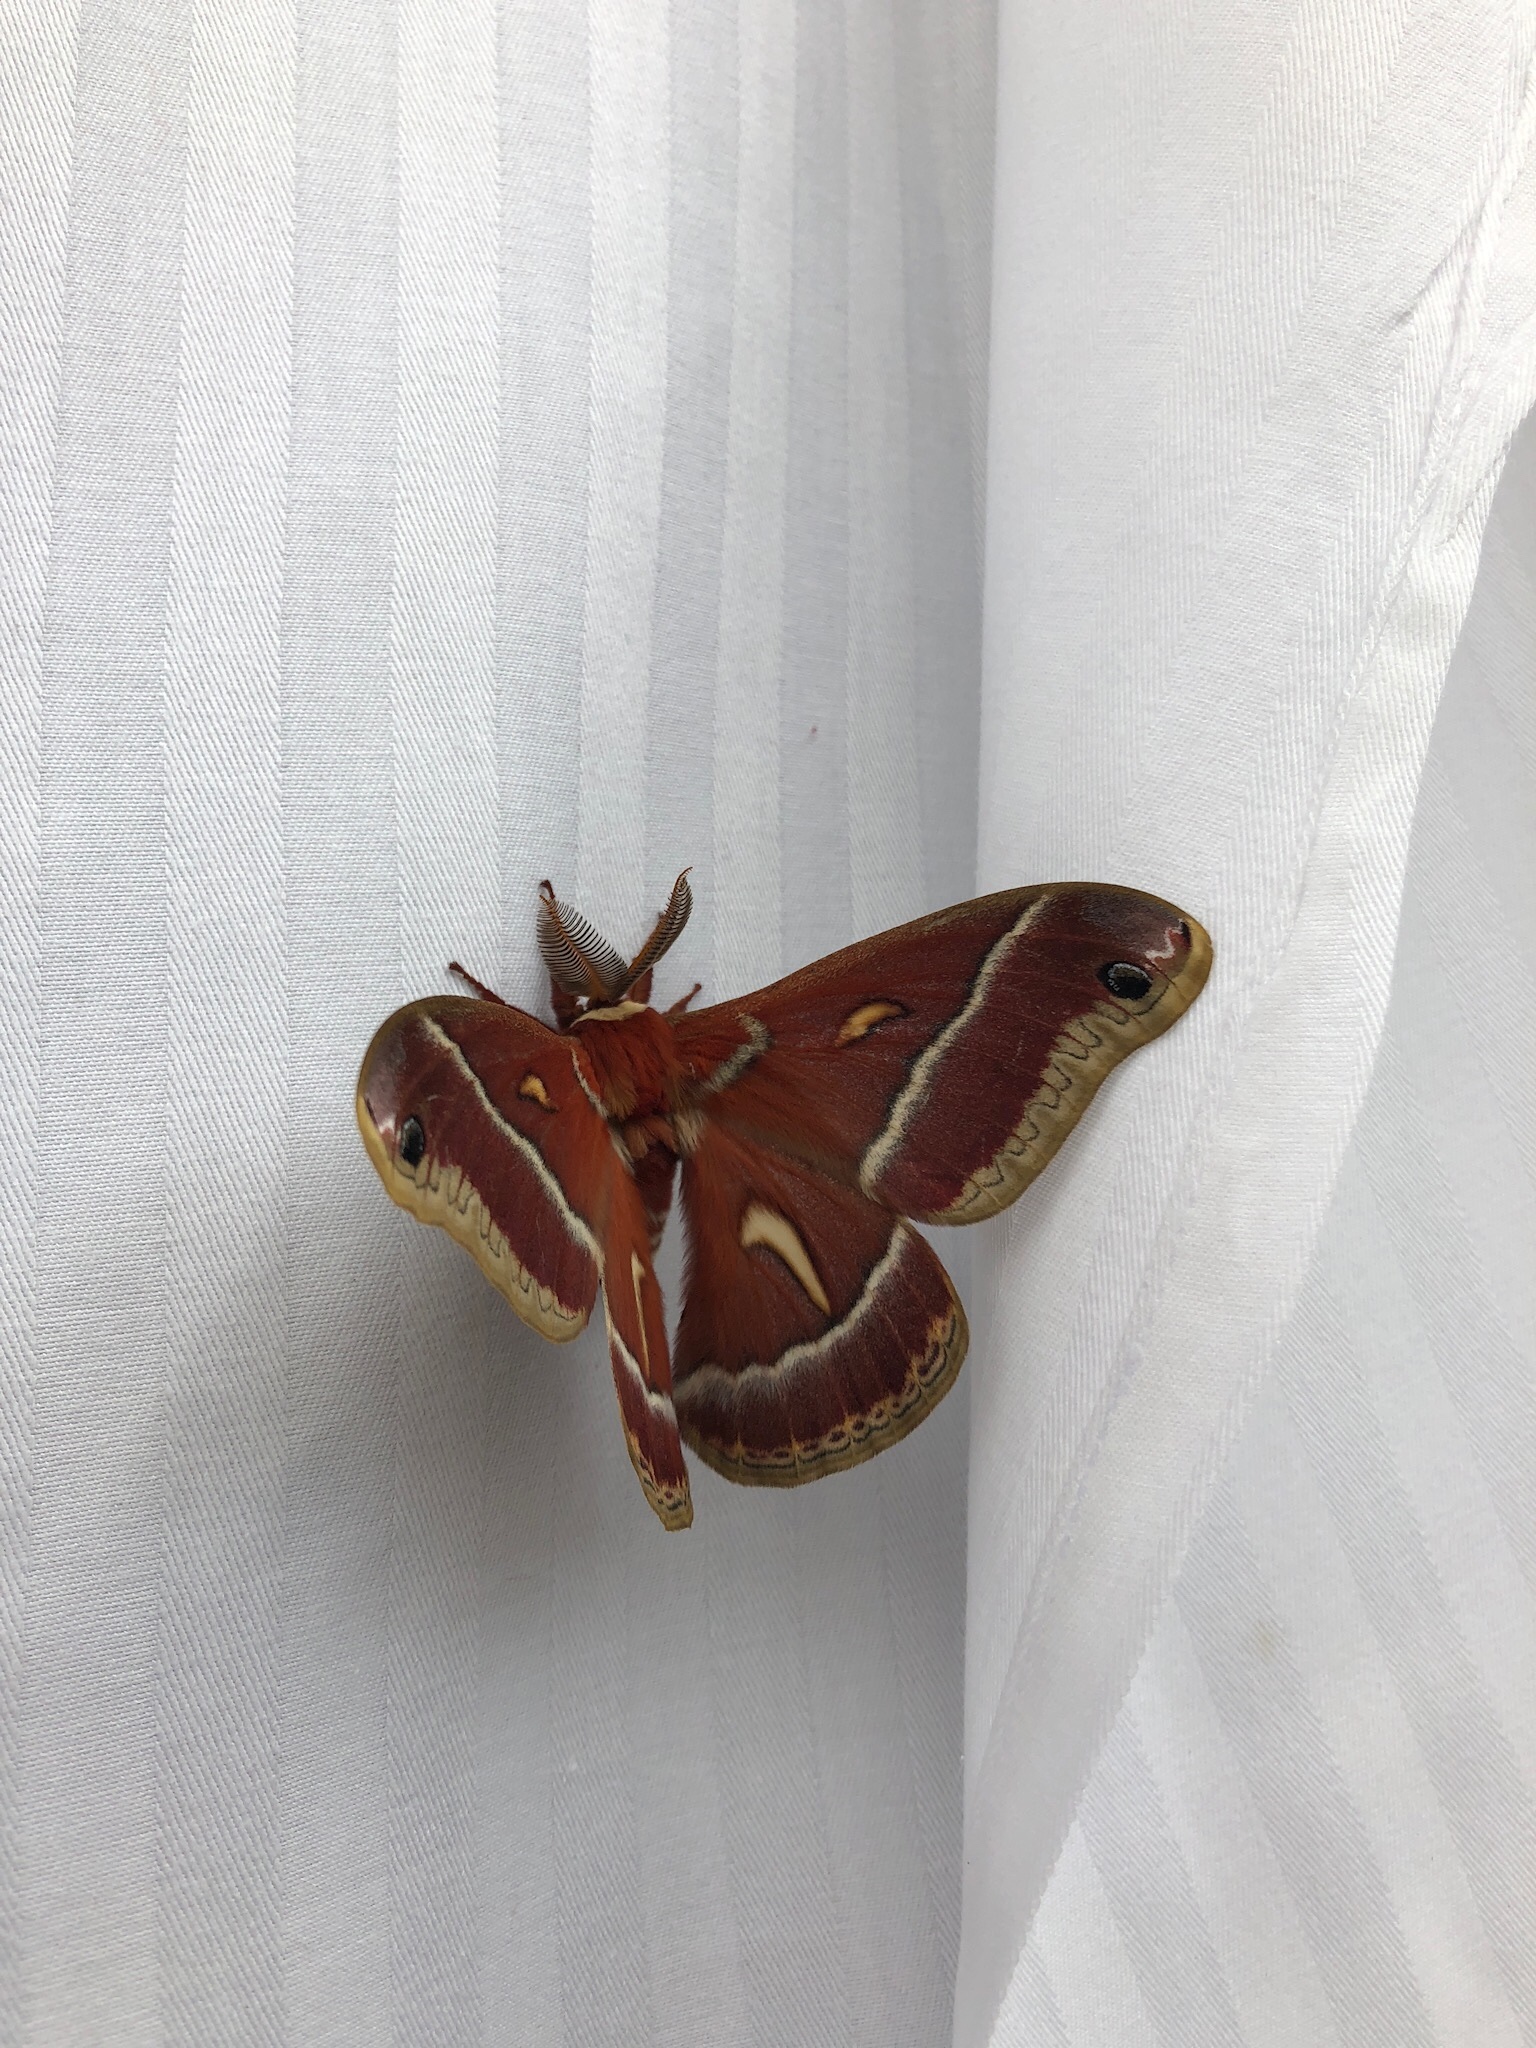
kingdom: Animalia
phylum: Arthropoda
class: Insecta
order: Lepidoptera
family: Saturniidae
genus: Hyalophora
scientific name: Hyalophora euryalus
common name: Ceanothus silkmoth
